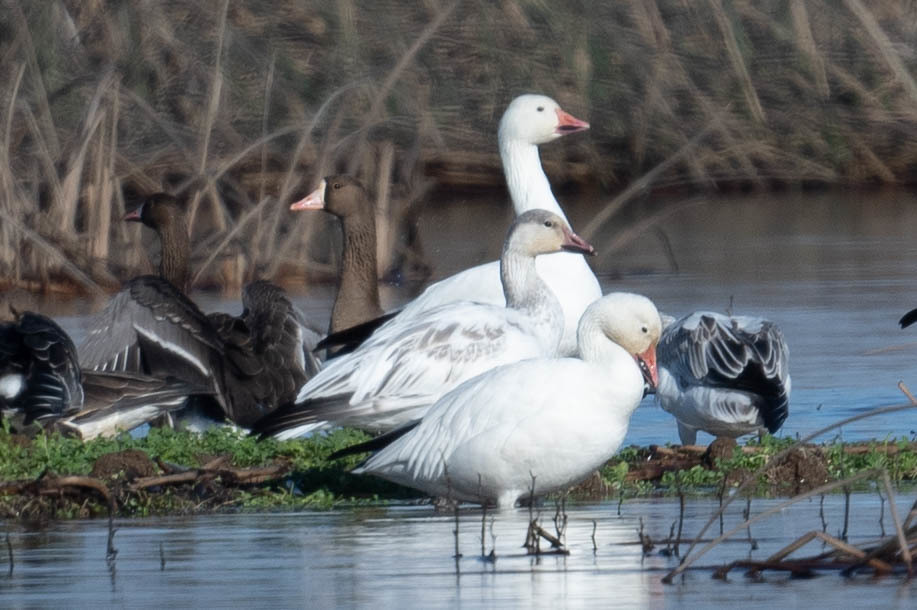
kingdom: Animalia
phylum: Chordata
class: Aves
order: Anseriformes
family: Anatidae
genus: Anser
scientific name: Anser caerulescens
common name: Snow goose
